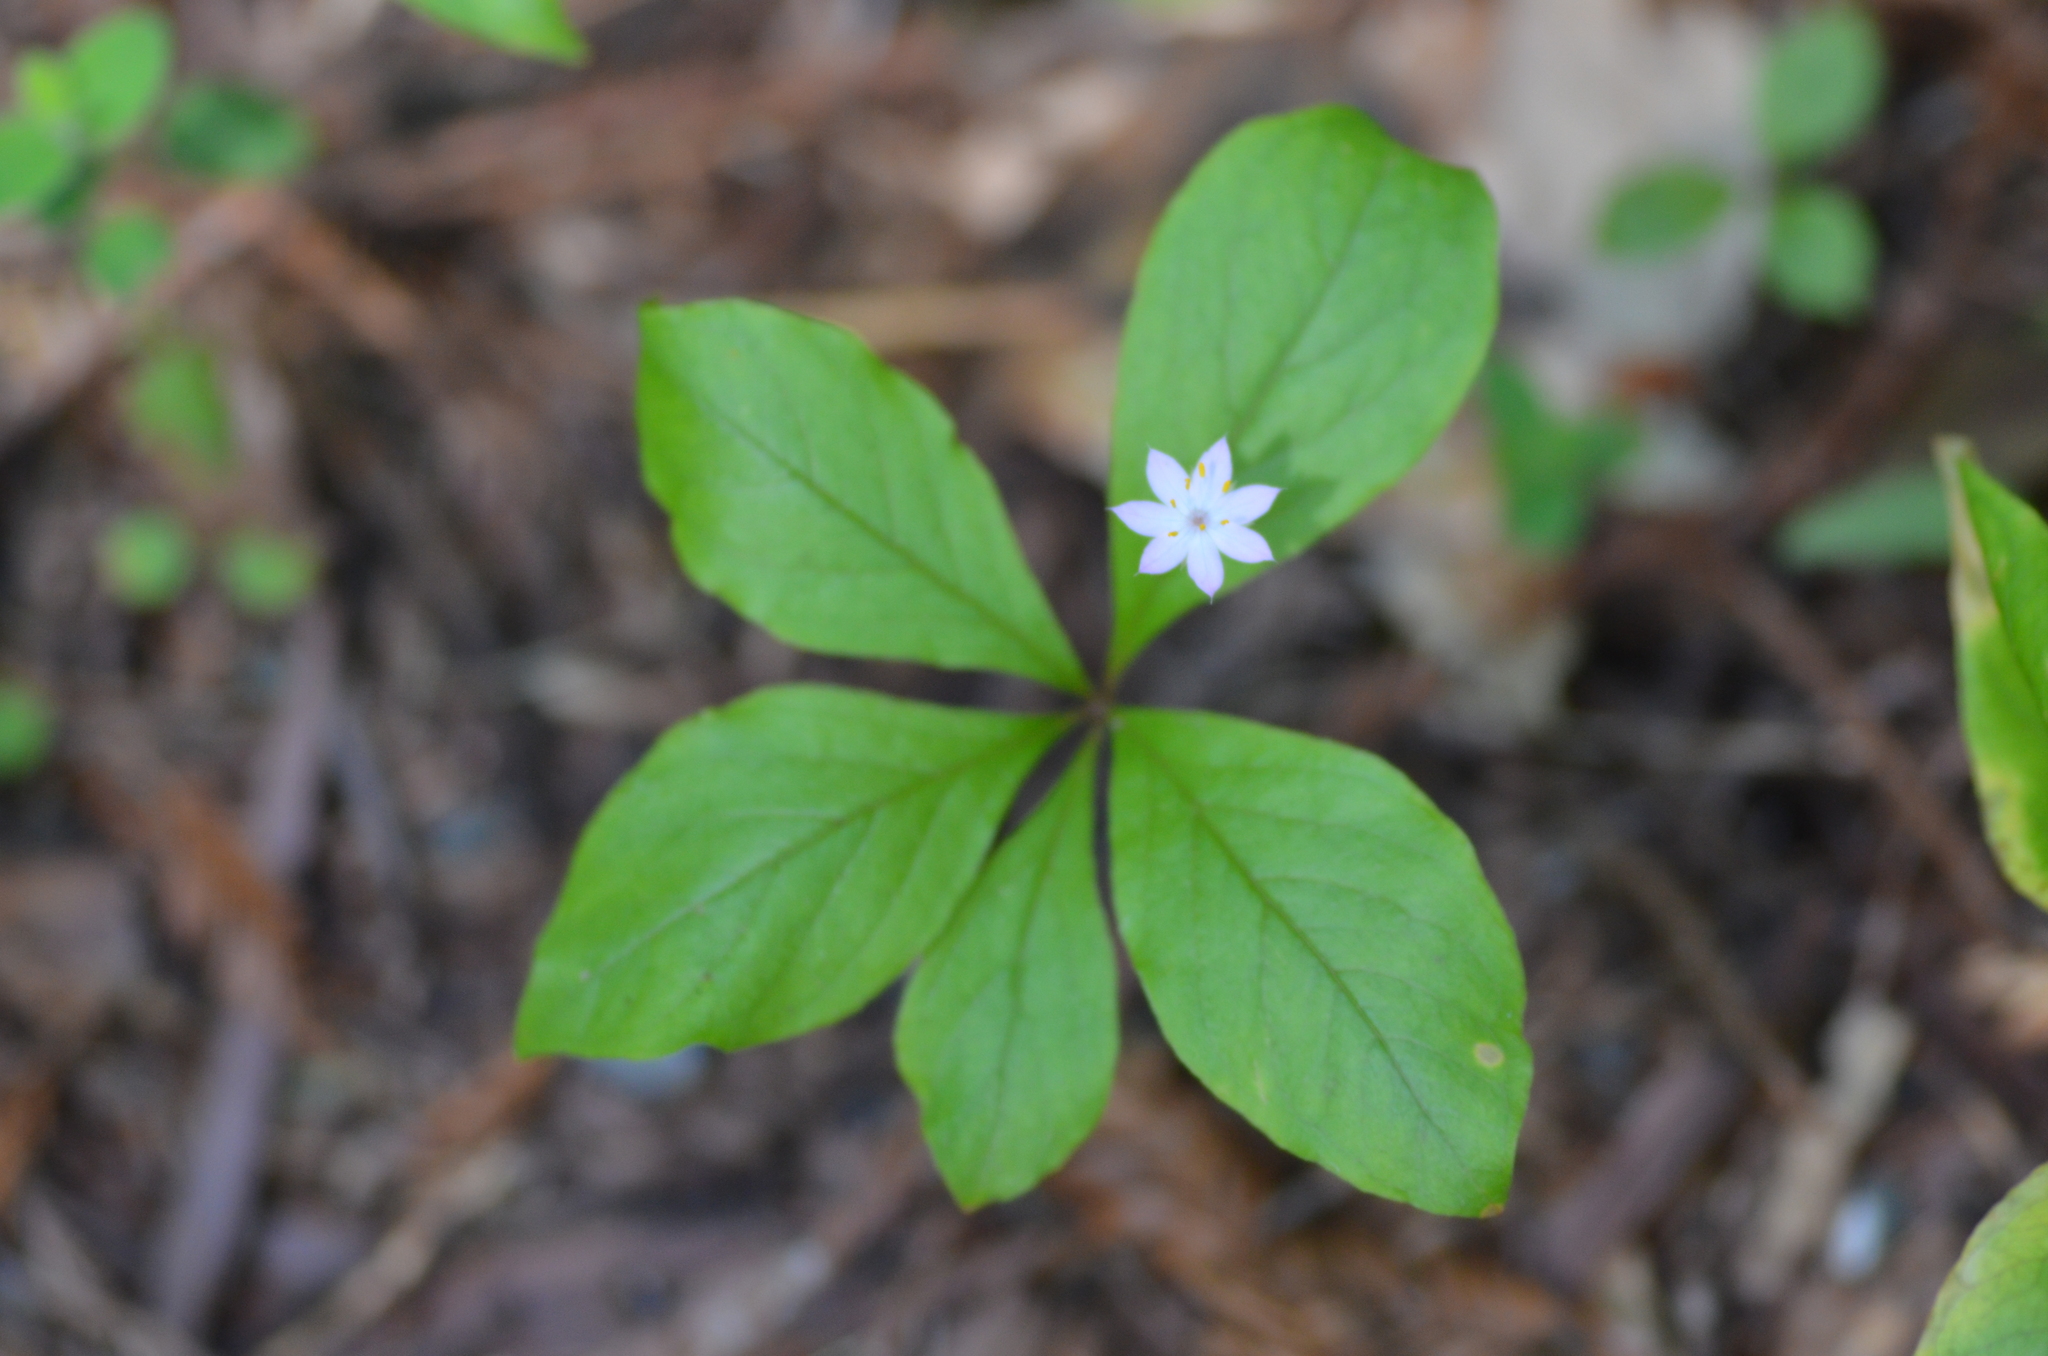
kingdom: Plantae
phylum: Tracheophyta
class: Magnoliopsida
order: Ericales
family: Primulaceae
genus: Lysimachia
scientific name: Lysimachia latifolia
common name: Pacific starflower
